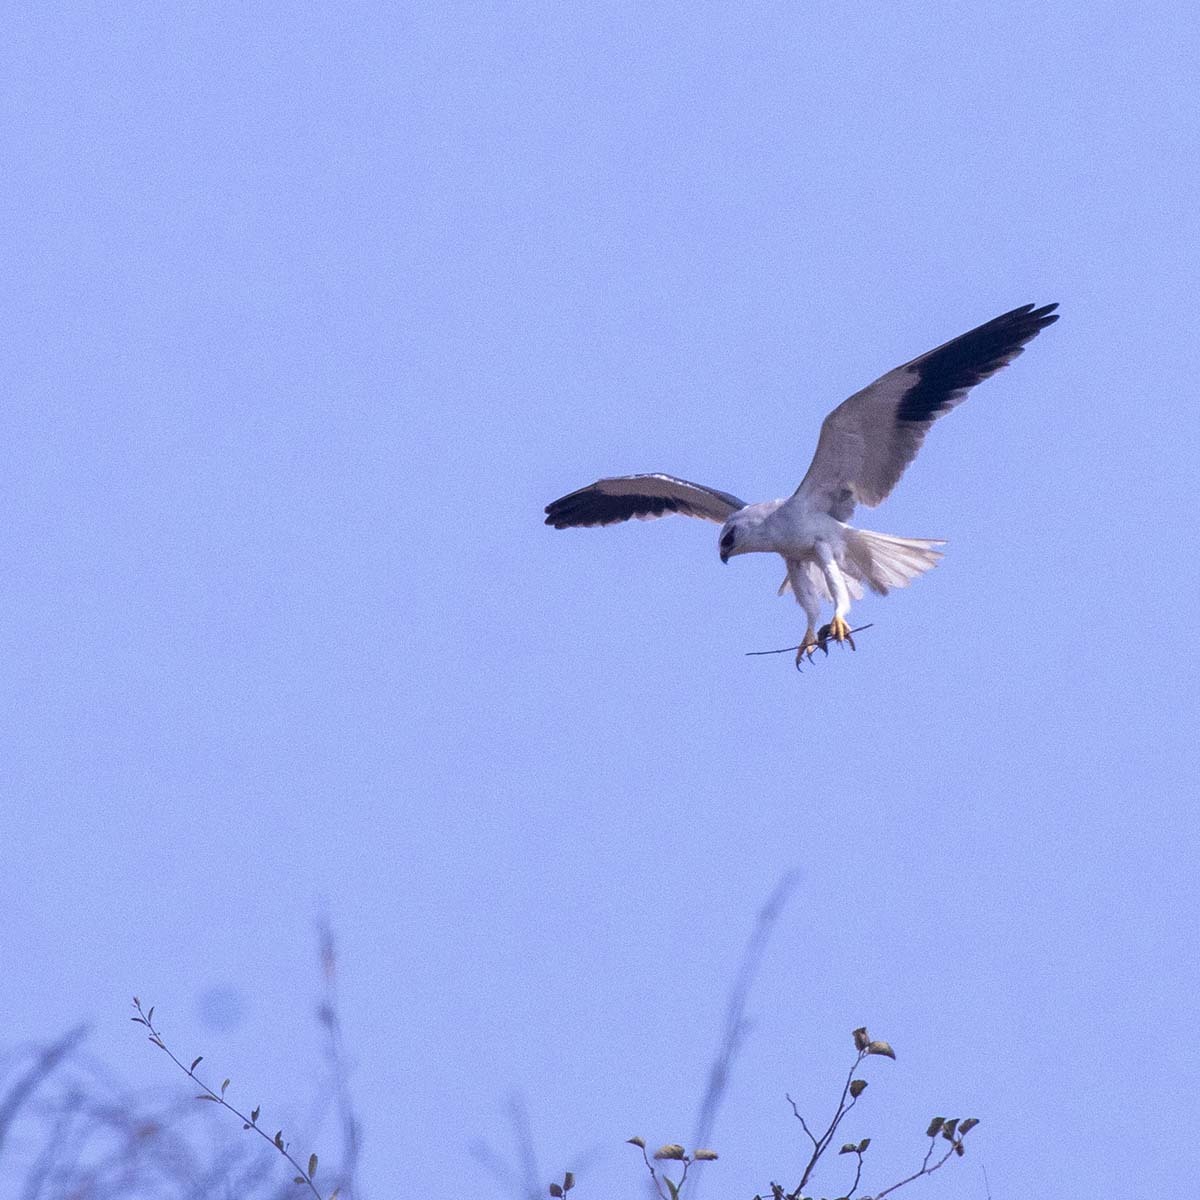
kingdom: Animalia
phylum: Chordata
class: Aves
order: Accipitriformes
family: Accipitridae
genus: Elanus
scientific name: Elanus caeruleus
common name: Black-winged kite
